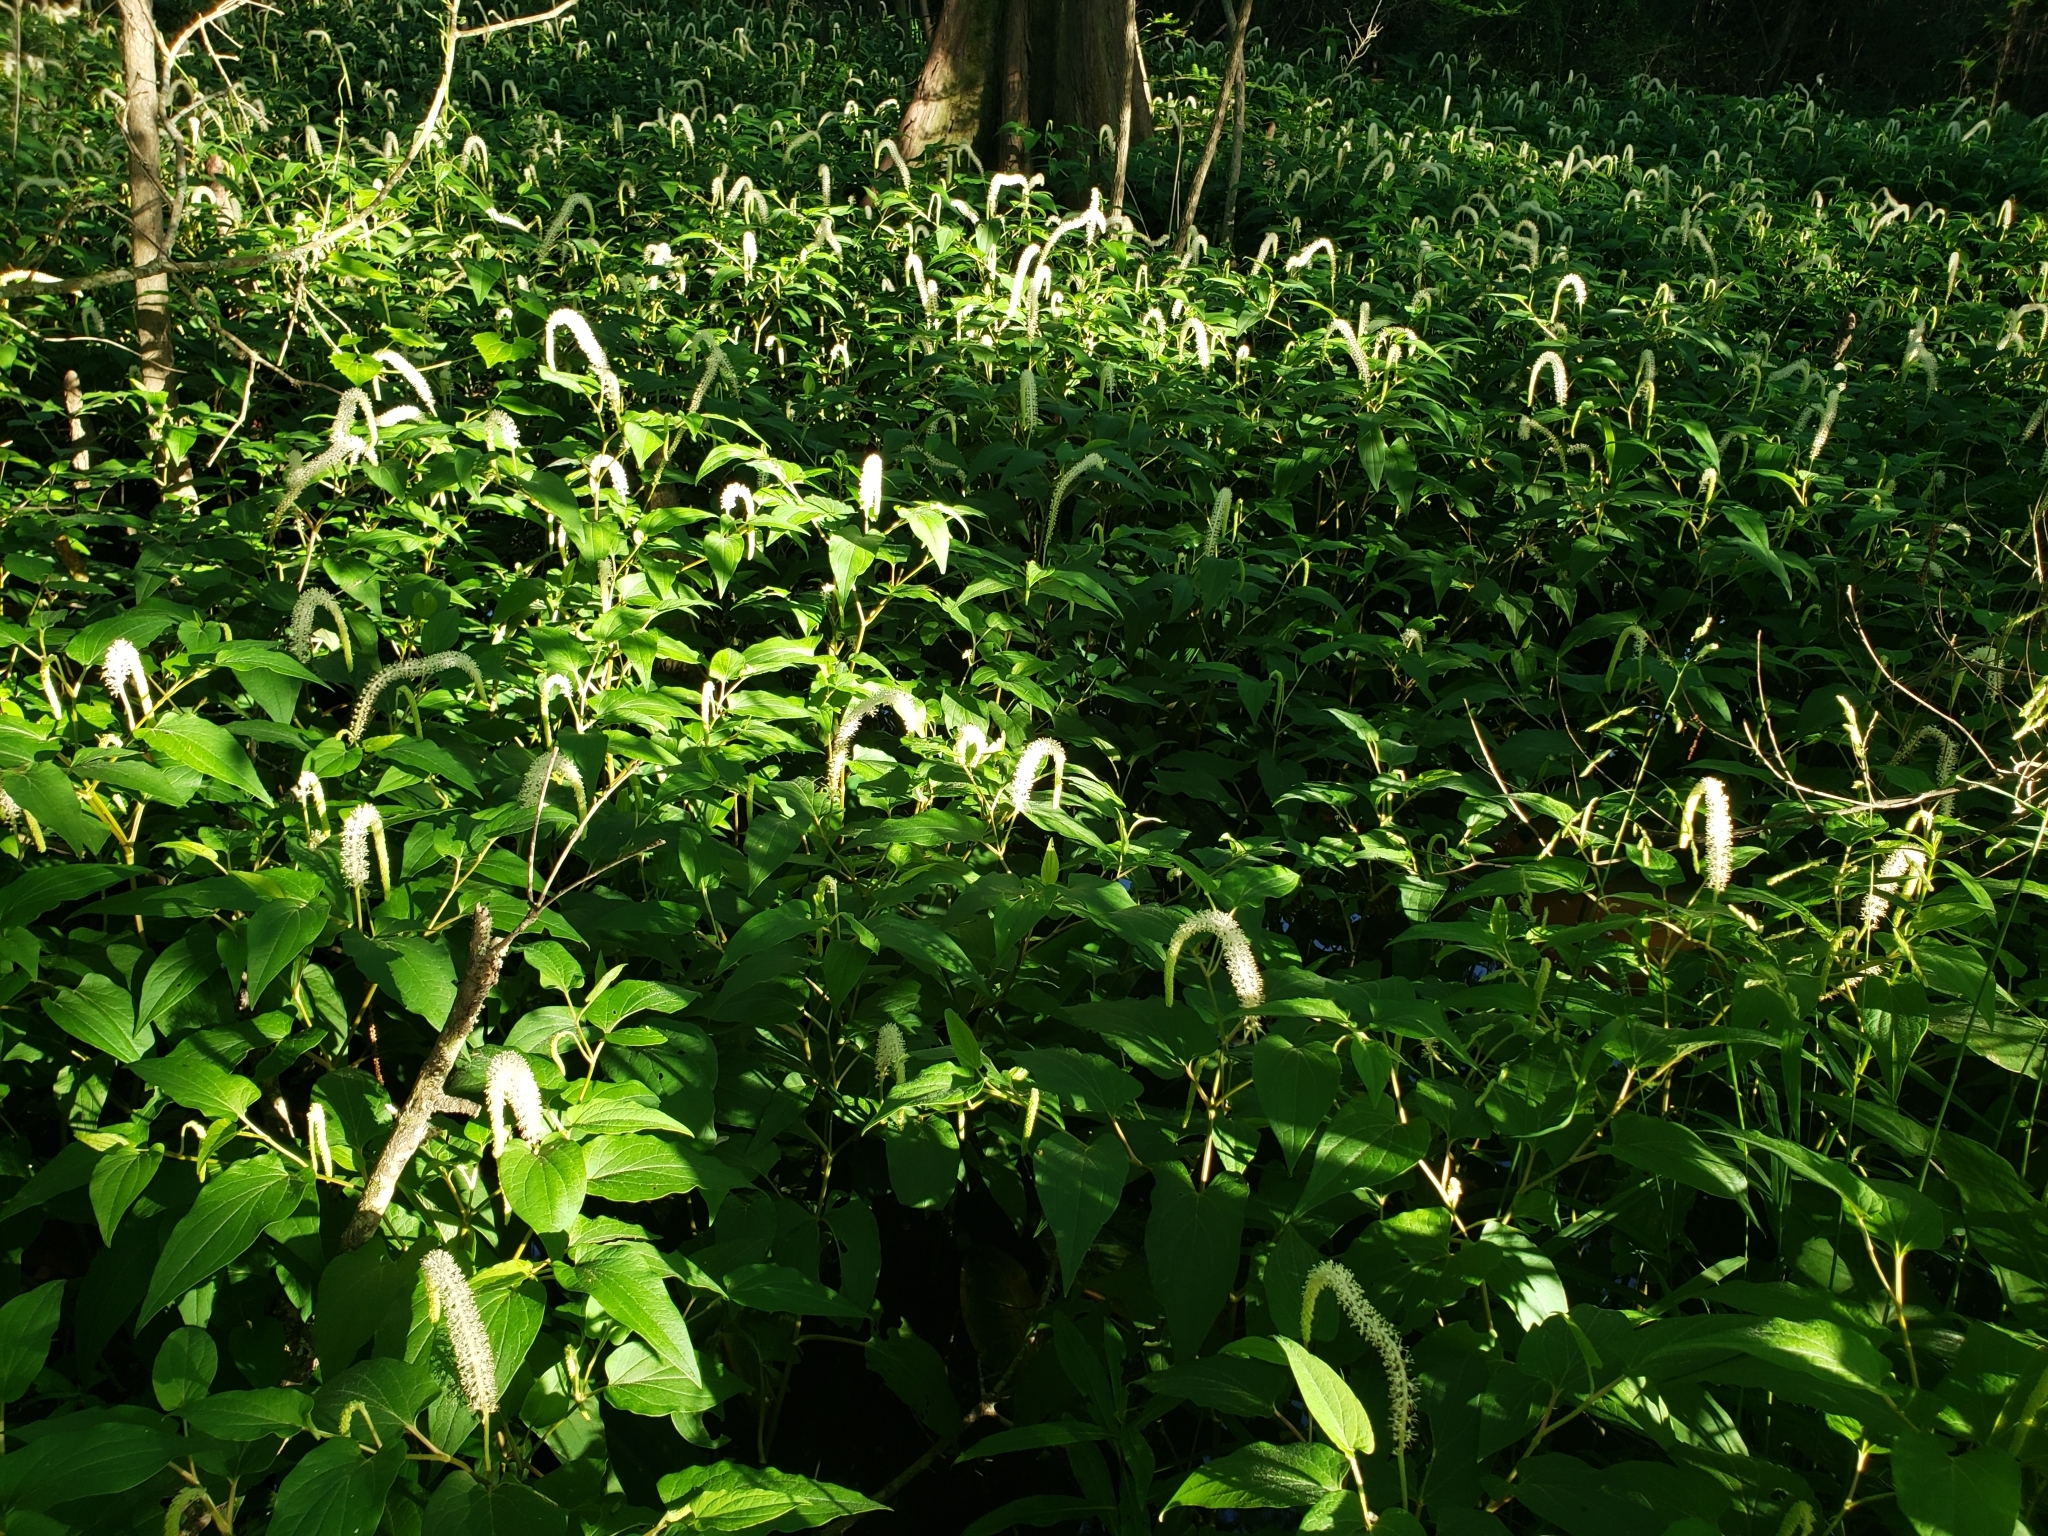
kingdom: Plantae
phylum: Tracheophyta
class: Magnoliopsida
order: Piperales
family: Saururaceae
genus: Saururus
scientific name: Saururus cernuus
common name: Lizard's-tail
